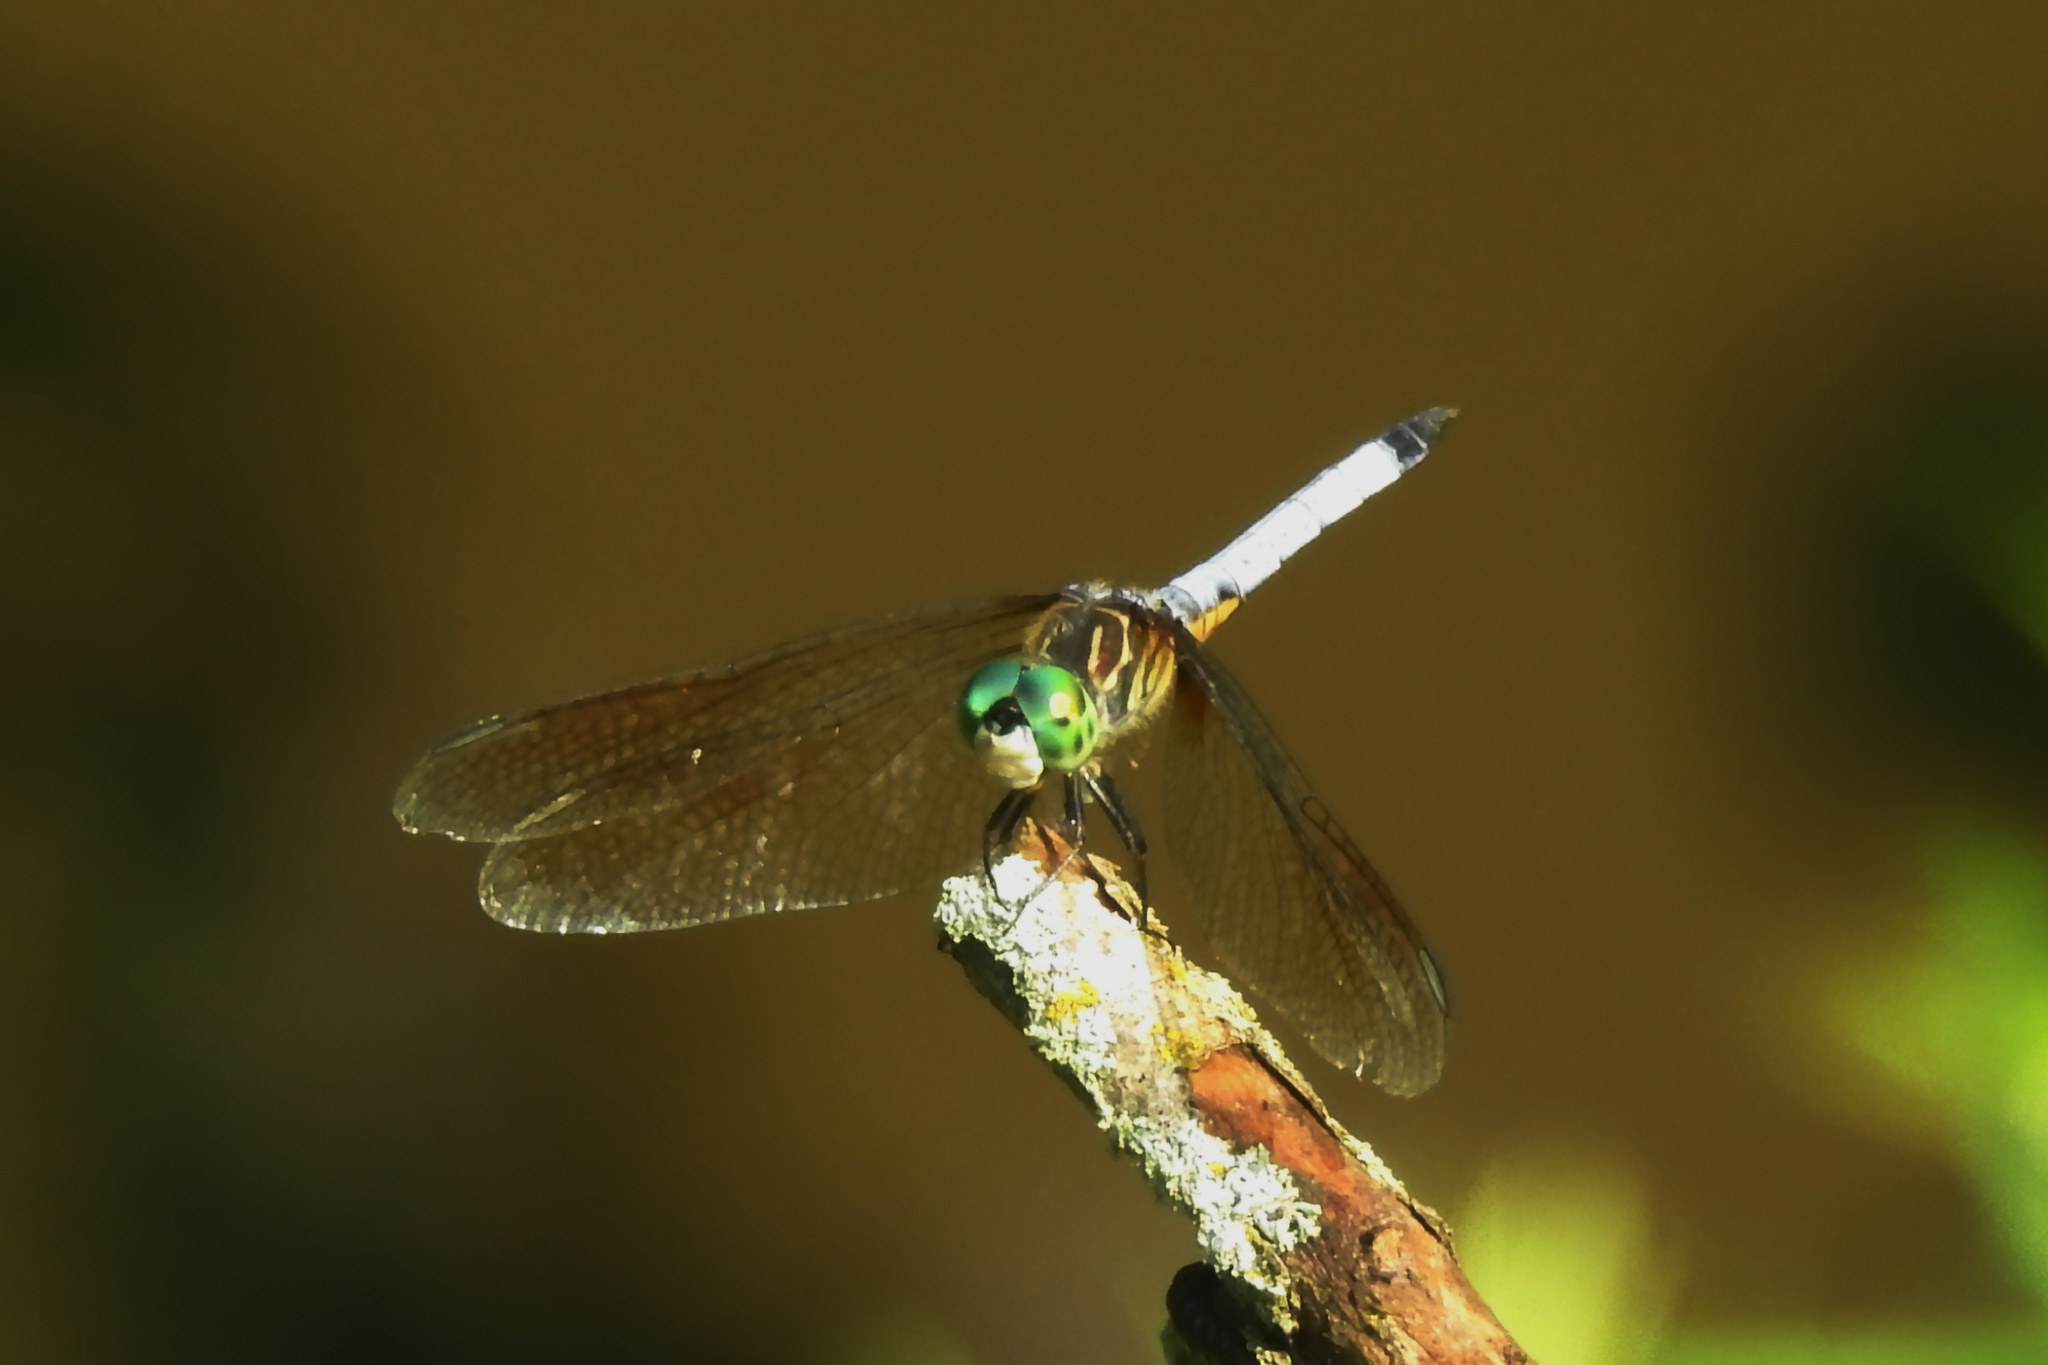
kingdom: Animalia
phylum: Arthropoda
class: Insecta
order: Odonata
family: Libellulidae
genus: Pachydiplax
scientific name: Pachydiplax longipennis
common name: Blue dasher
